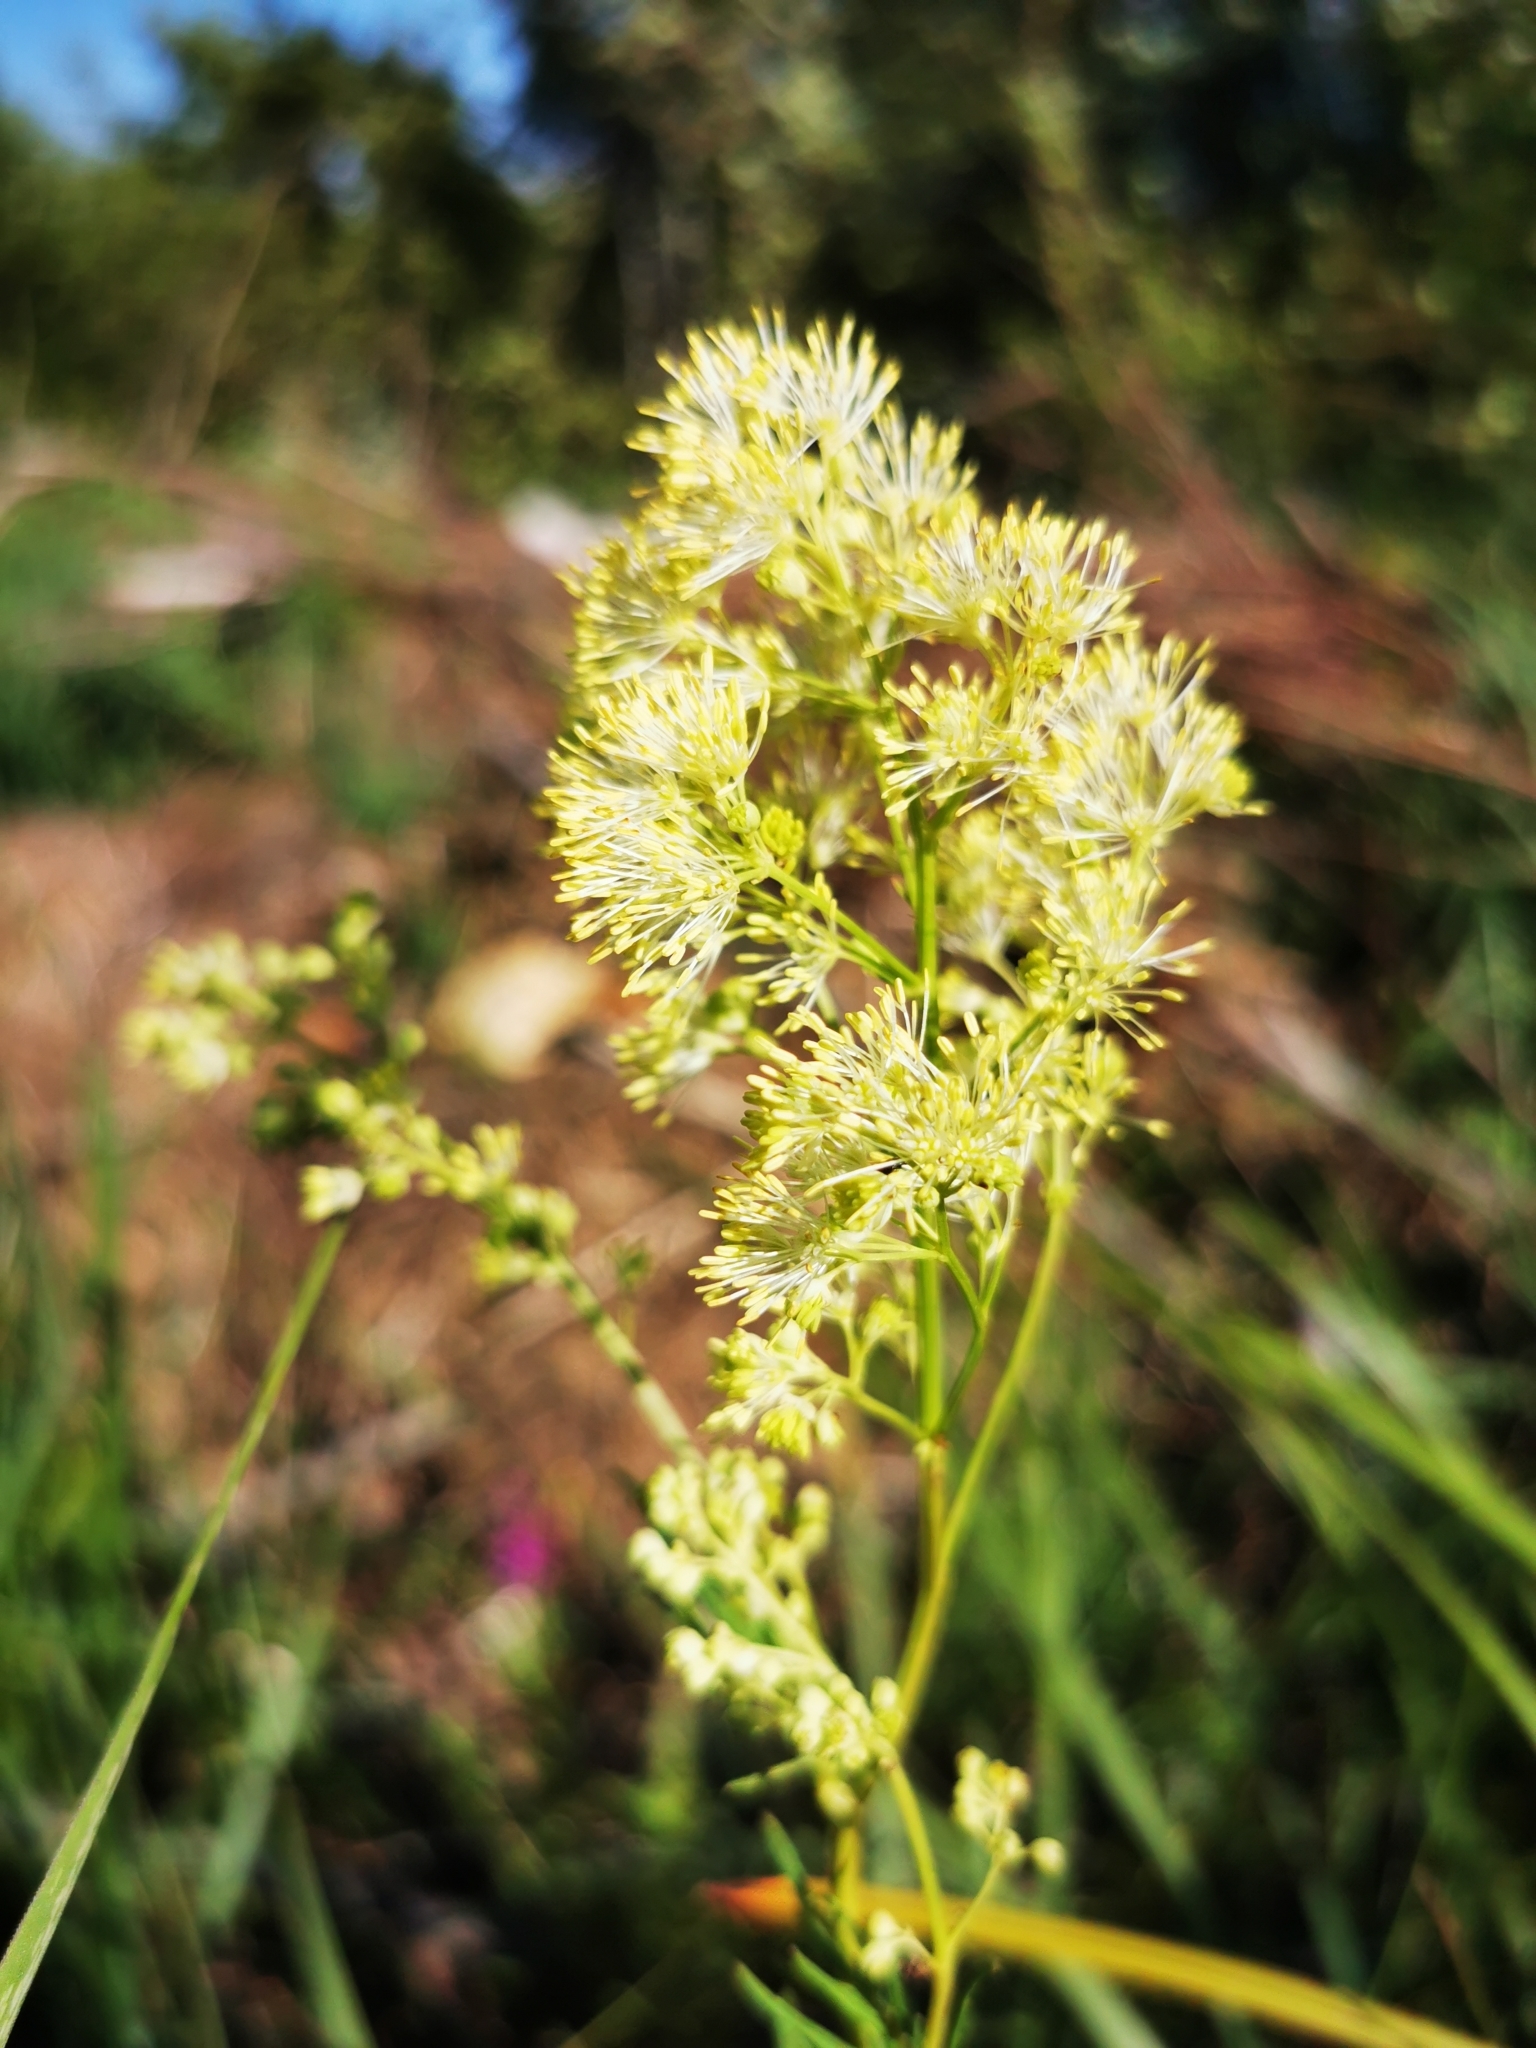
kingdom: Plantae
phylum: Tracheophyta
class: Magnoliopsida
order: Ranunculales
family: Ranunculaceae
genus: Thalictrum
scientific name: Thalictrum lucidum
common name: Shining meadow-rue
